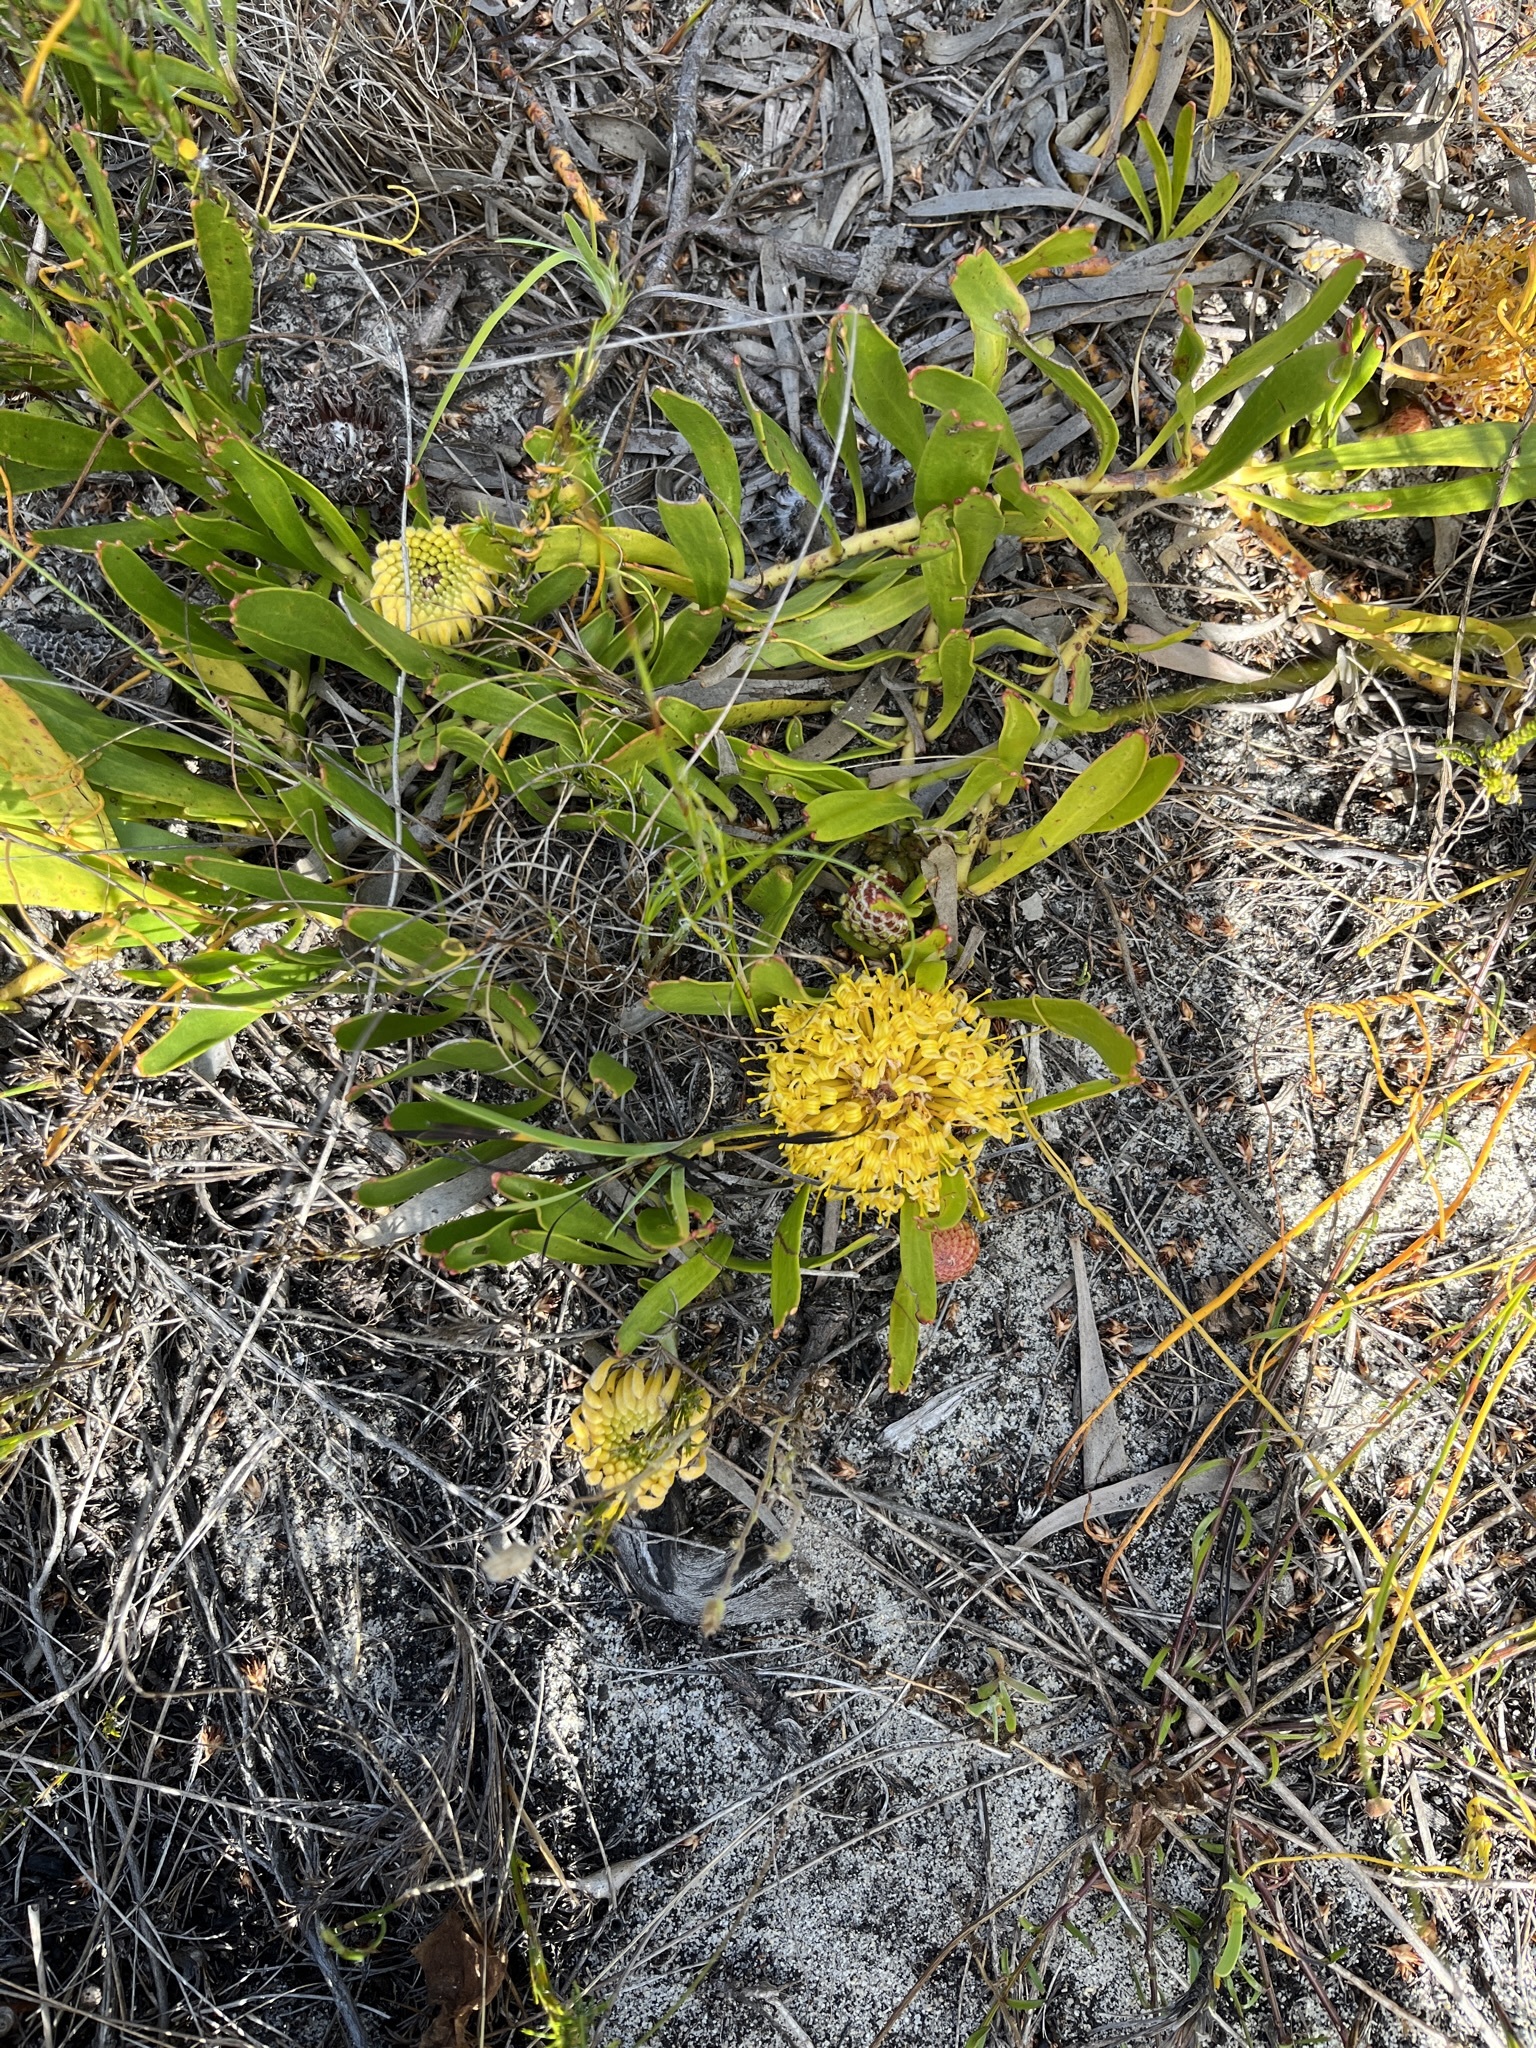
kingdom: Plantae
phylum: Tracheophyta
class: Magnoliopsida
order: Proteales
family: Proteaceae
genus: Leucospermum
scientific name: Leucospermum hypophyllocarpodendron
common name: Snakestem pincushion
